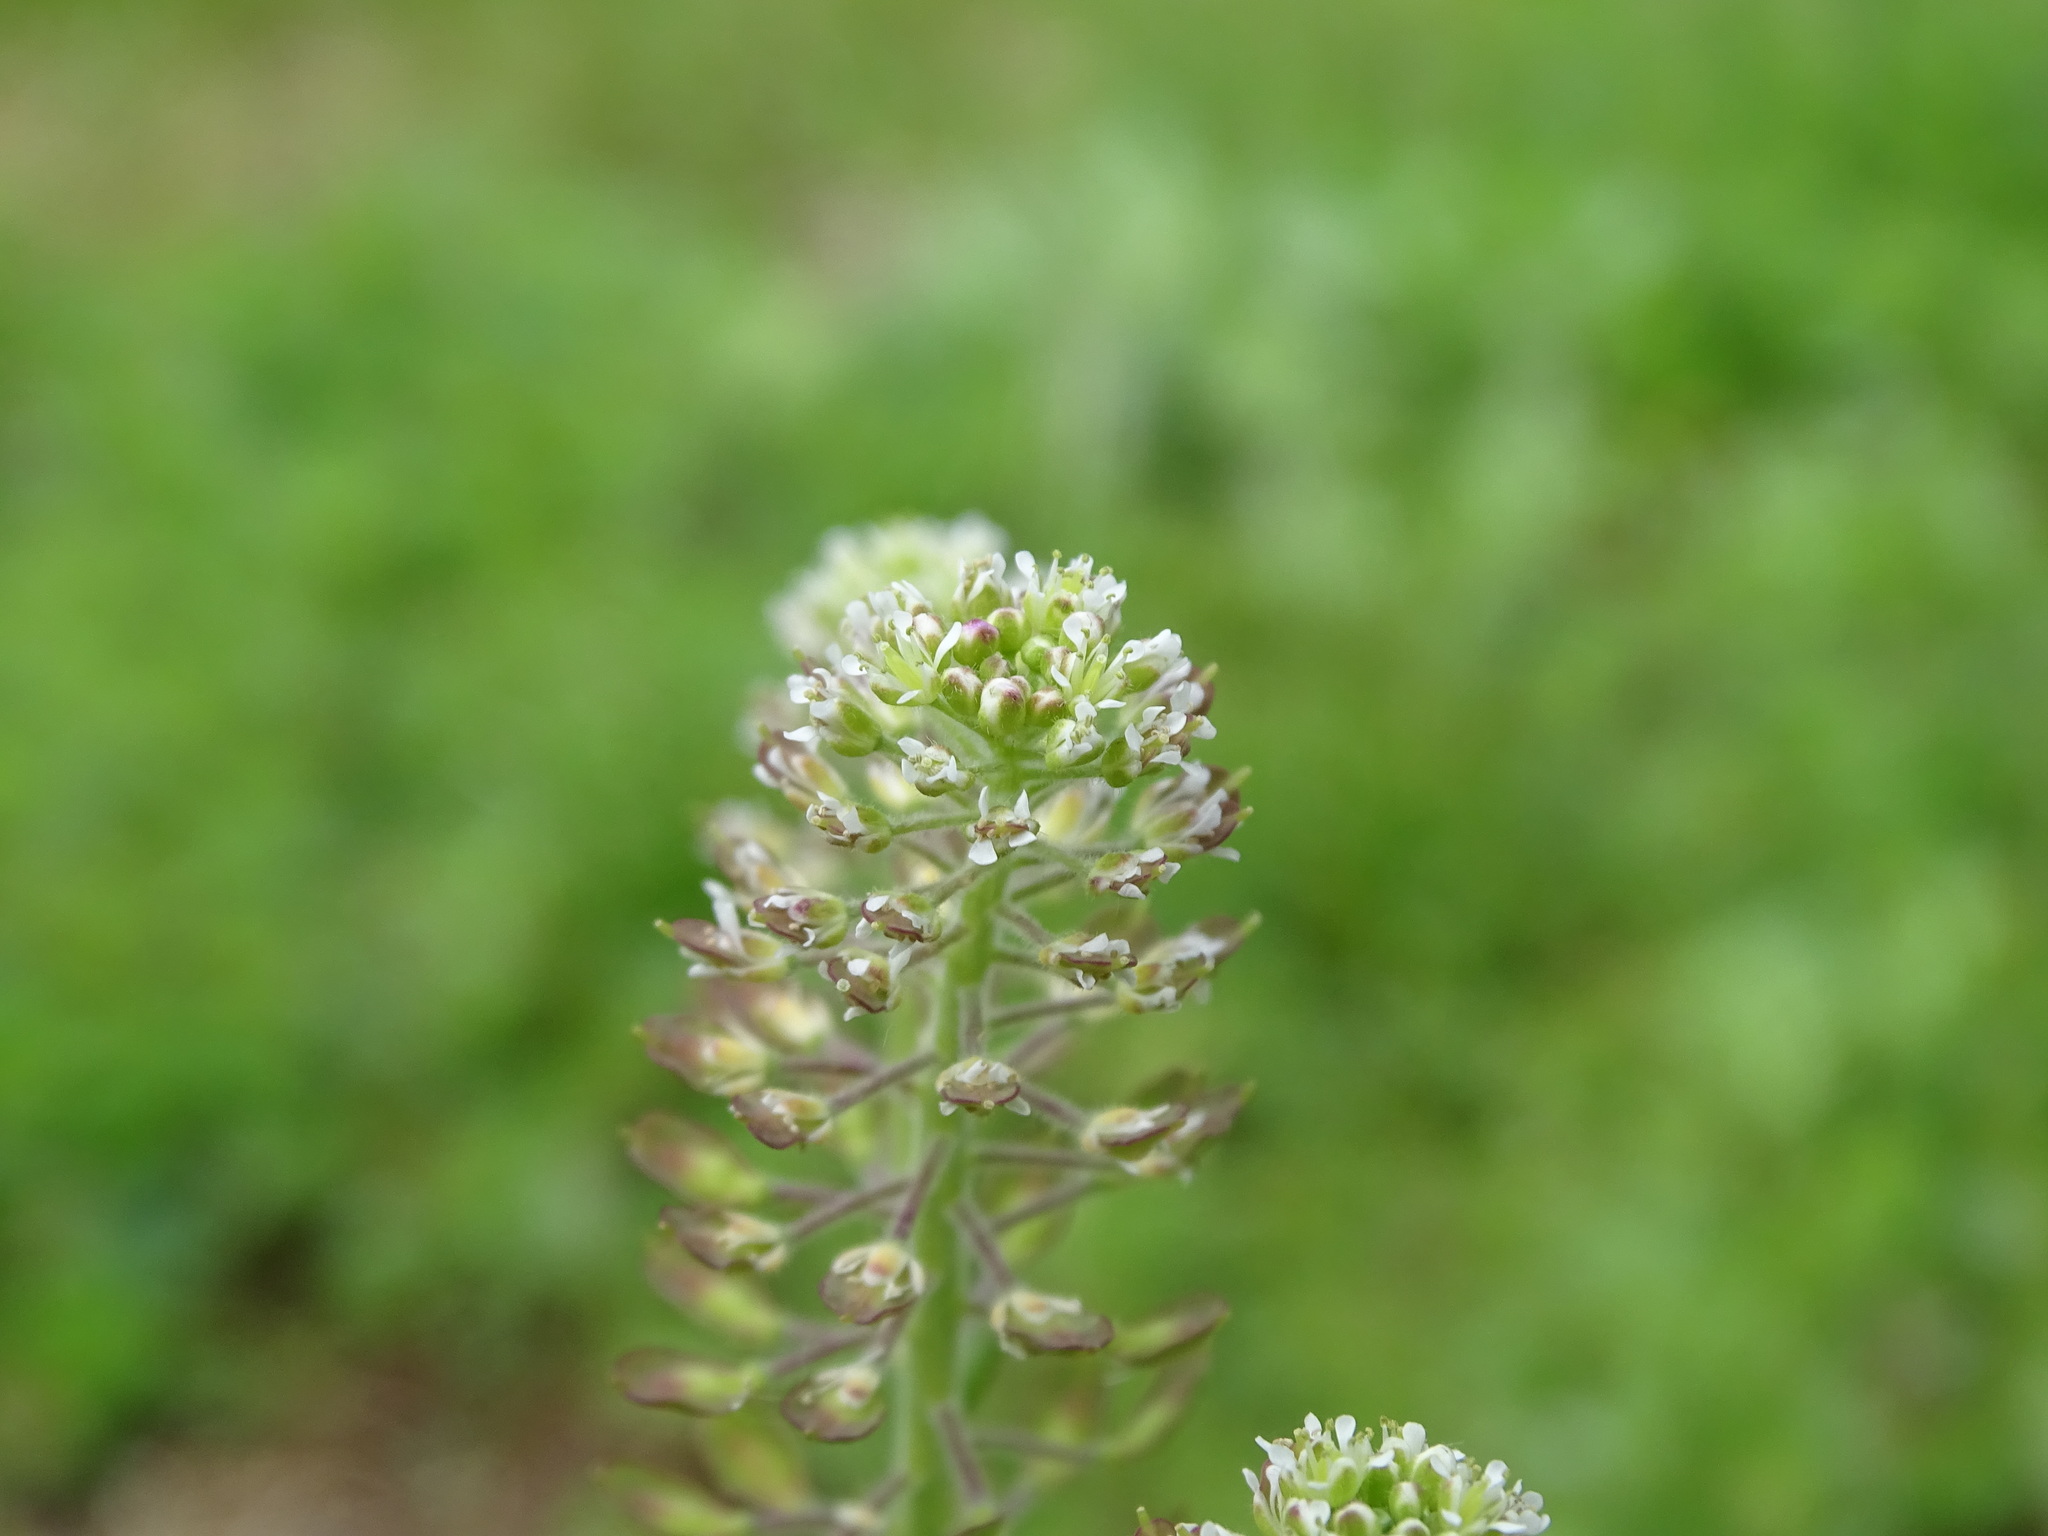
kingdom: Plantae
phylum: Tracheophyta
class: Magnoliopsida
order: Brassicales
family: Brassicaceae
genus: Lepidium
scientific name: Lepidium campestre
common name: Field pepperwort
